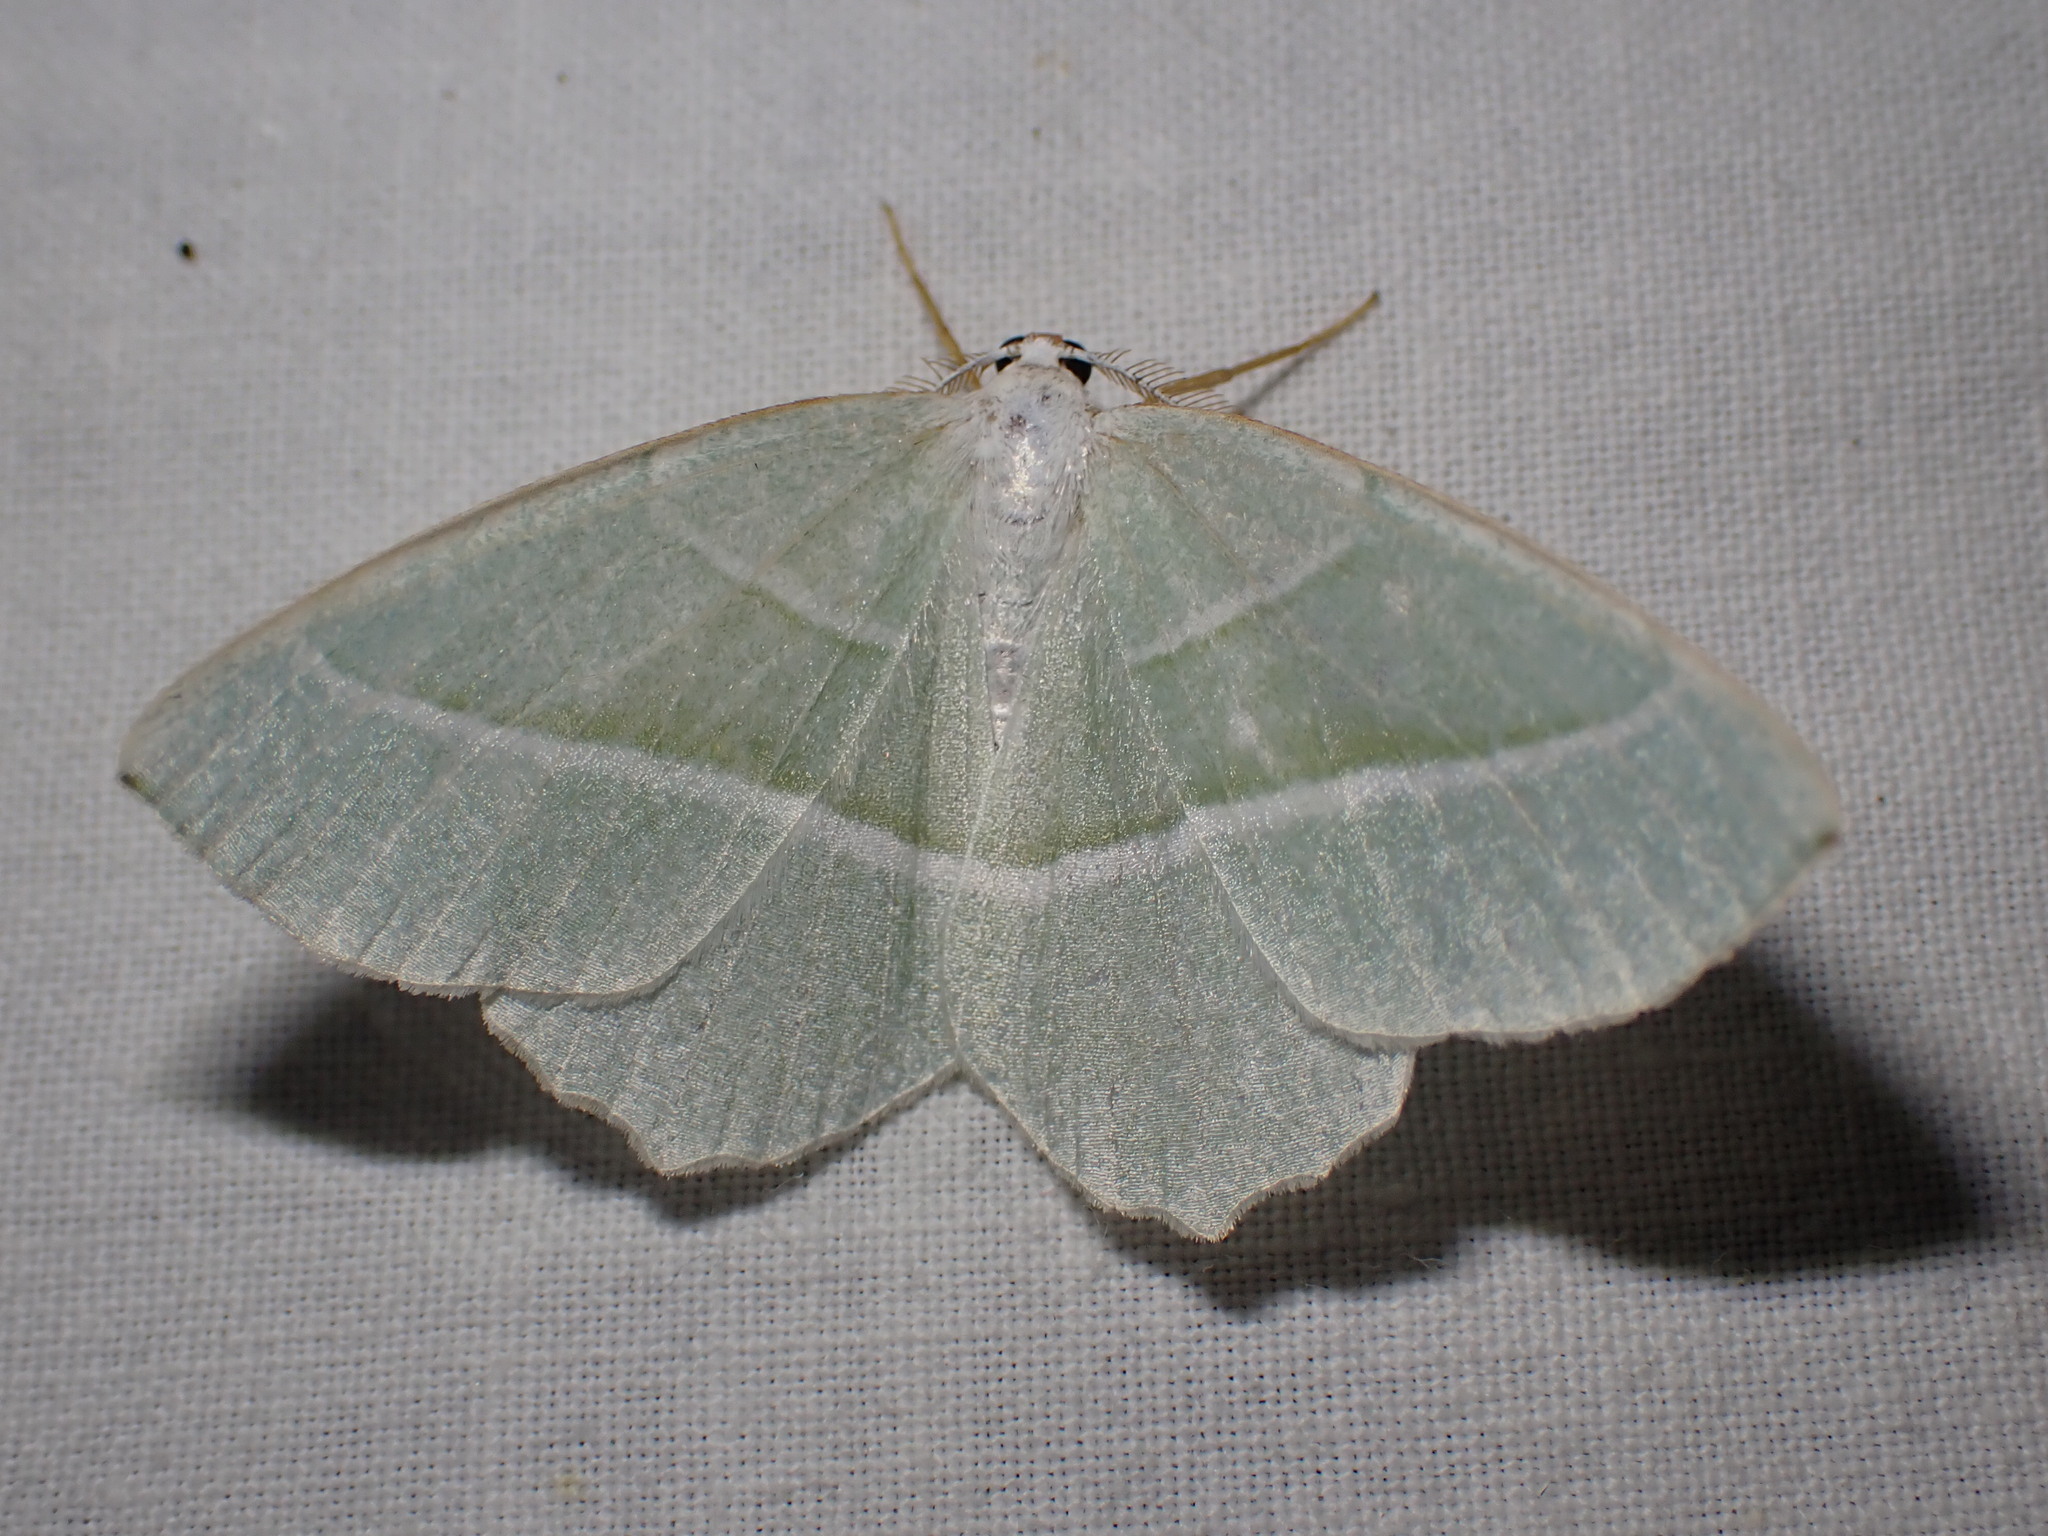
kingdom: Animalia
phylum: Arthropoda
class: Insecta
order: Lepidoptera
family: Geometridae
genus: Campaea
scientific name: Campaea margaritaria
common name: Light emerald
